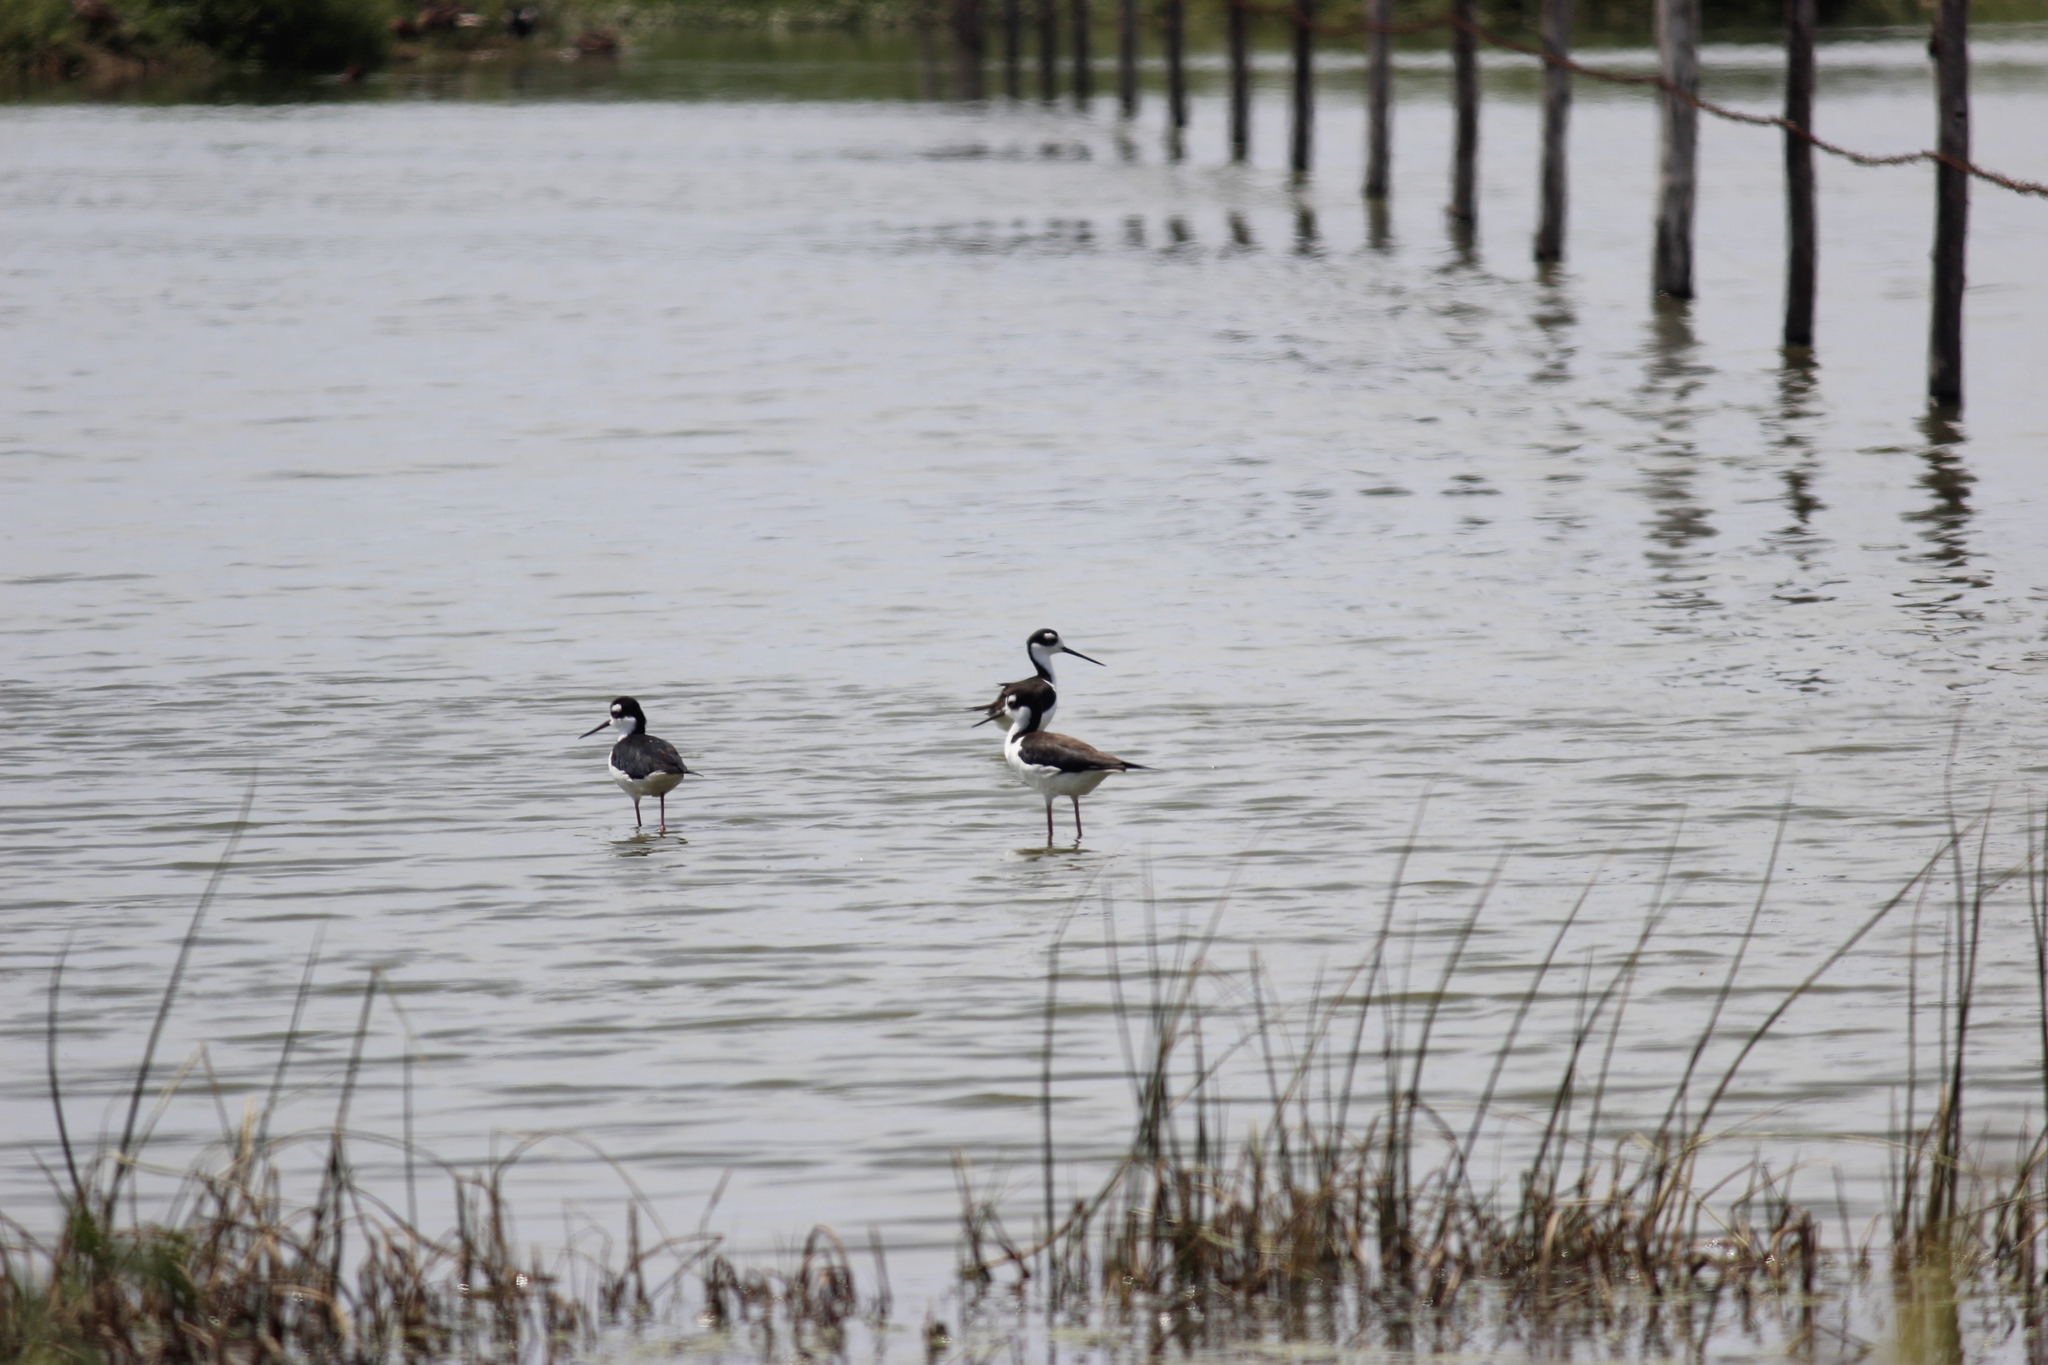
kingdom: Animalia
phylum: Chordata
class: Aves
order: Charadriiformes
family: Recurvirostridae
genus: Himantopus
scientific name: Himantopus mexicanus
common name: Black-necked stilt
